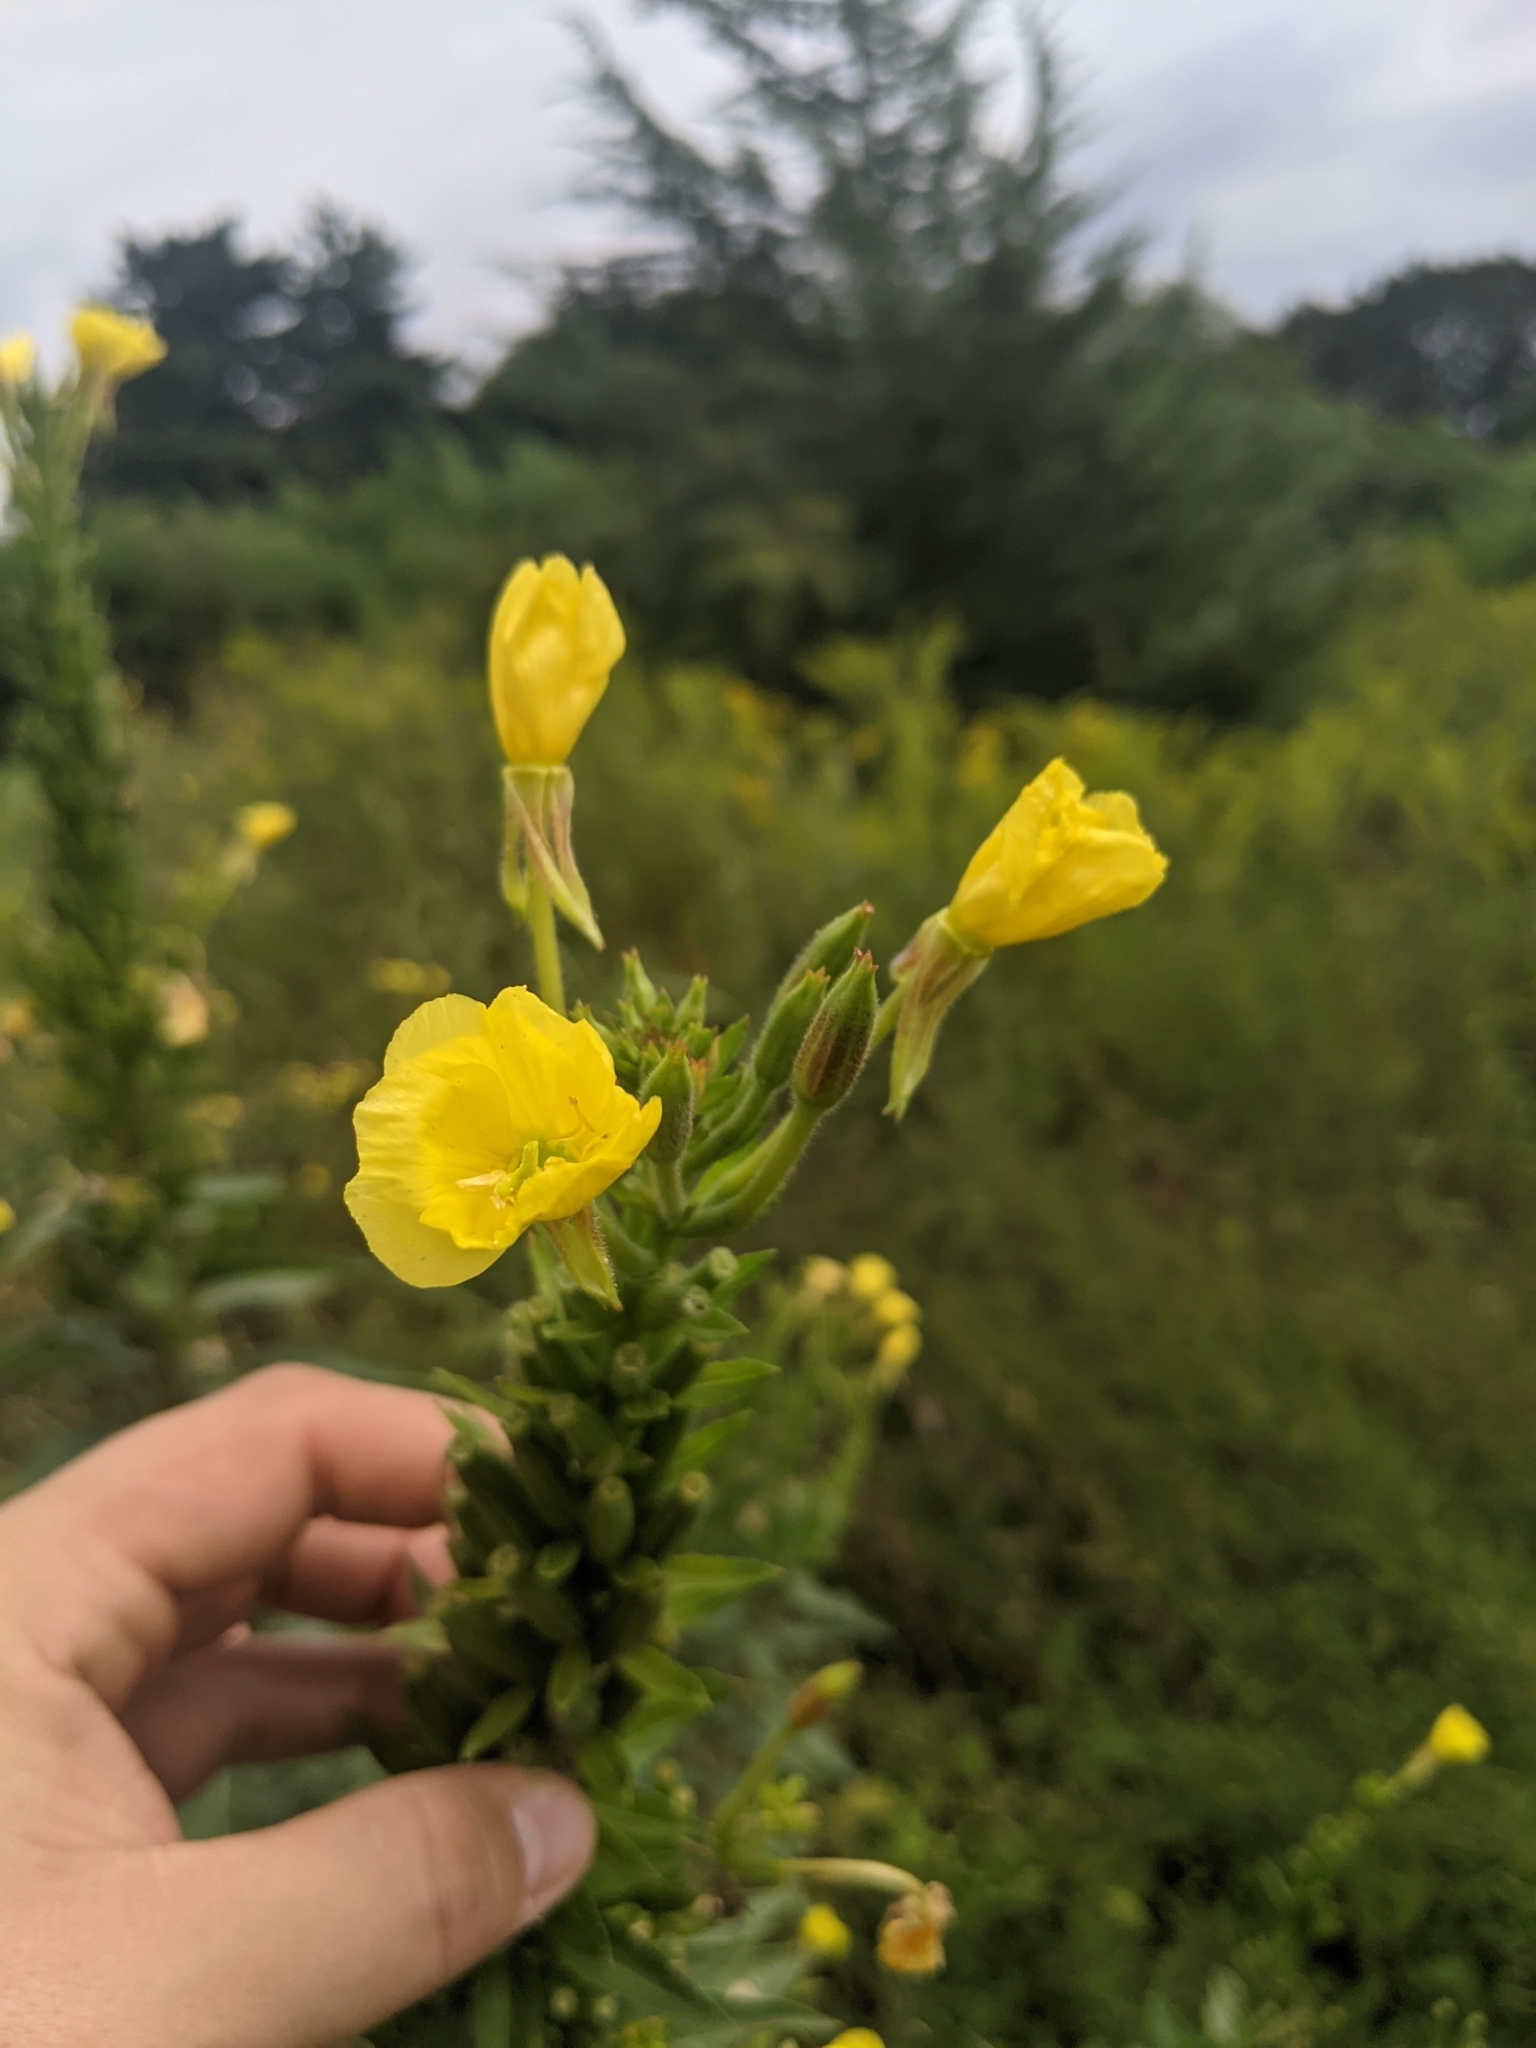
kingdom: Plantae
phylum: Tracheophyta
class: Magnoliopsida
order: Myrtales
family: Onagraceae
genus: Oenothera
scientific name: Oenothera biennis
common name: Common evening-primrose
